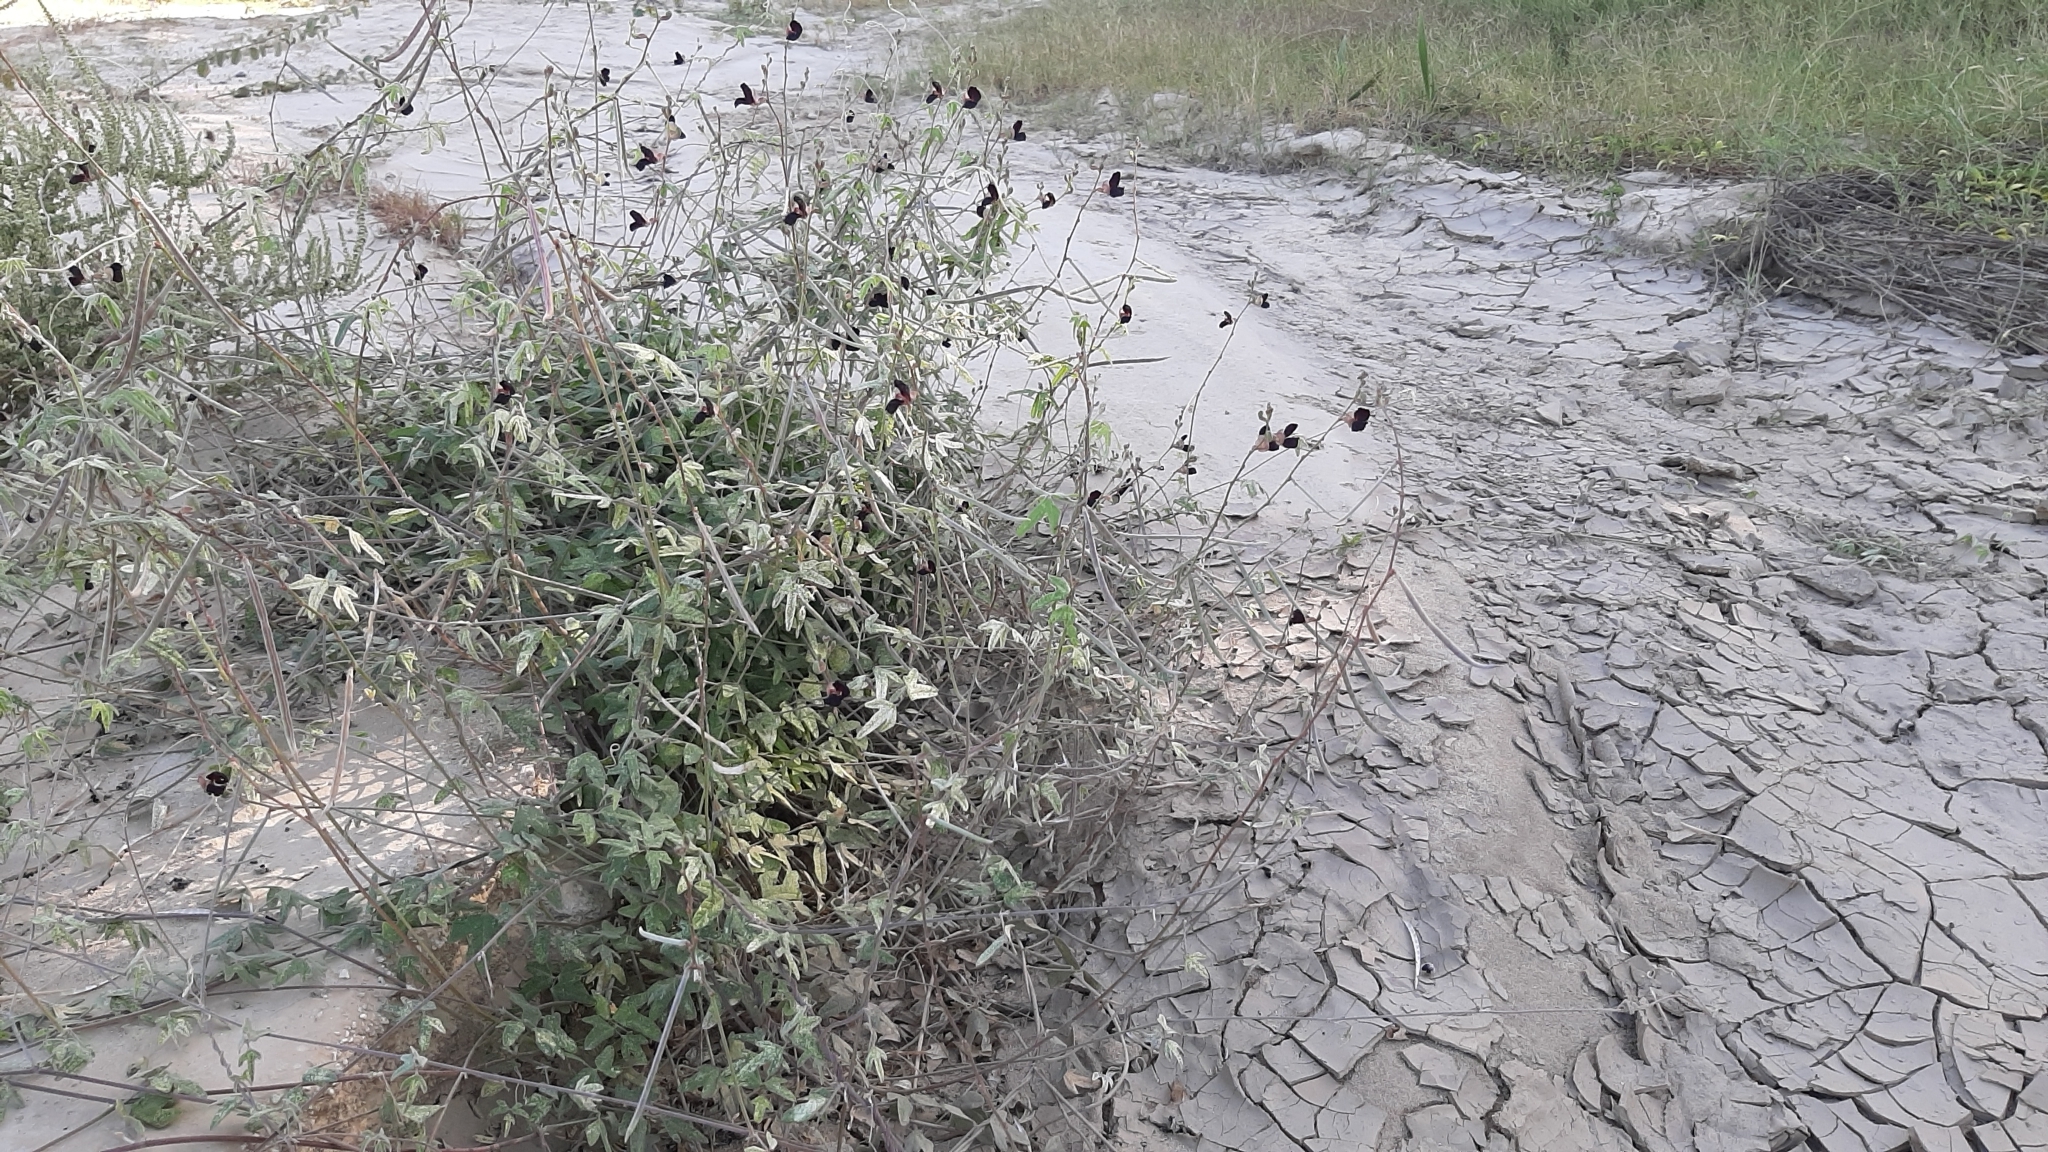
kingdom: Plantae
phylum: Tracheophyta
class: Magnoliopsida
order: Fabales
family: Fabaceae
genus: Macroptilium
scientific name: Macroptilium atropurpureum
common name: Purple bushbean
